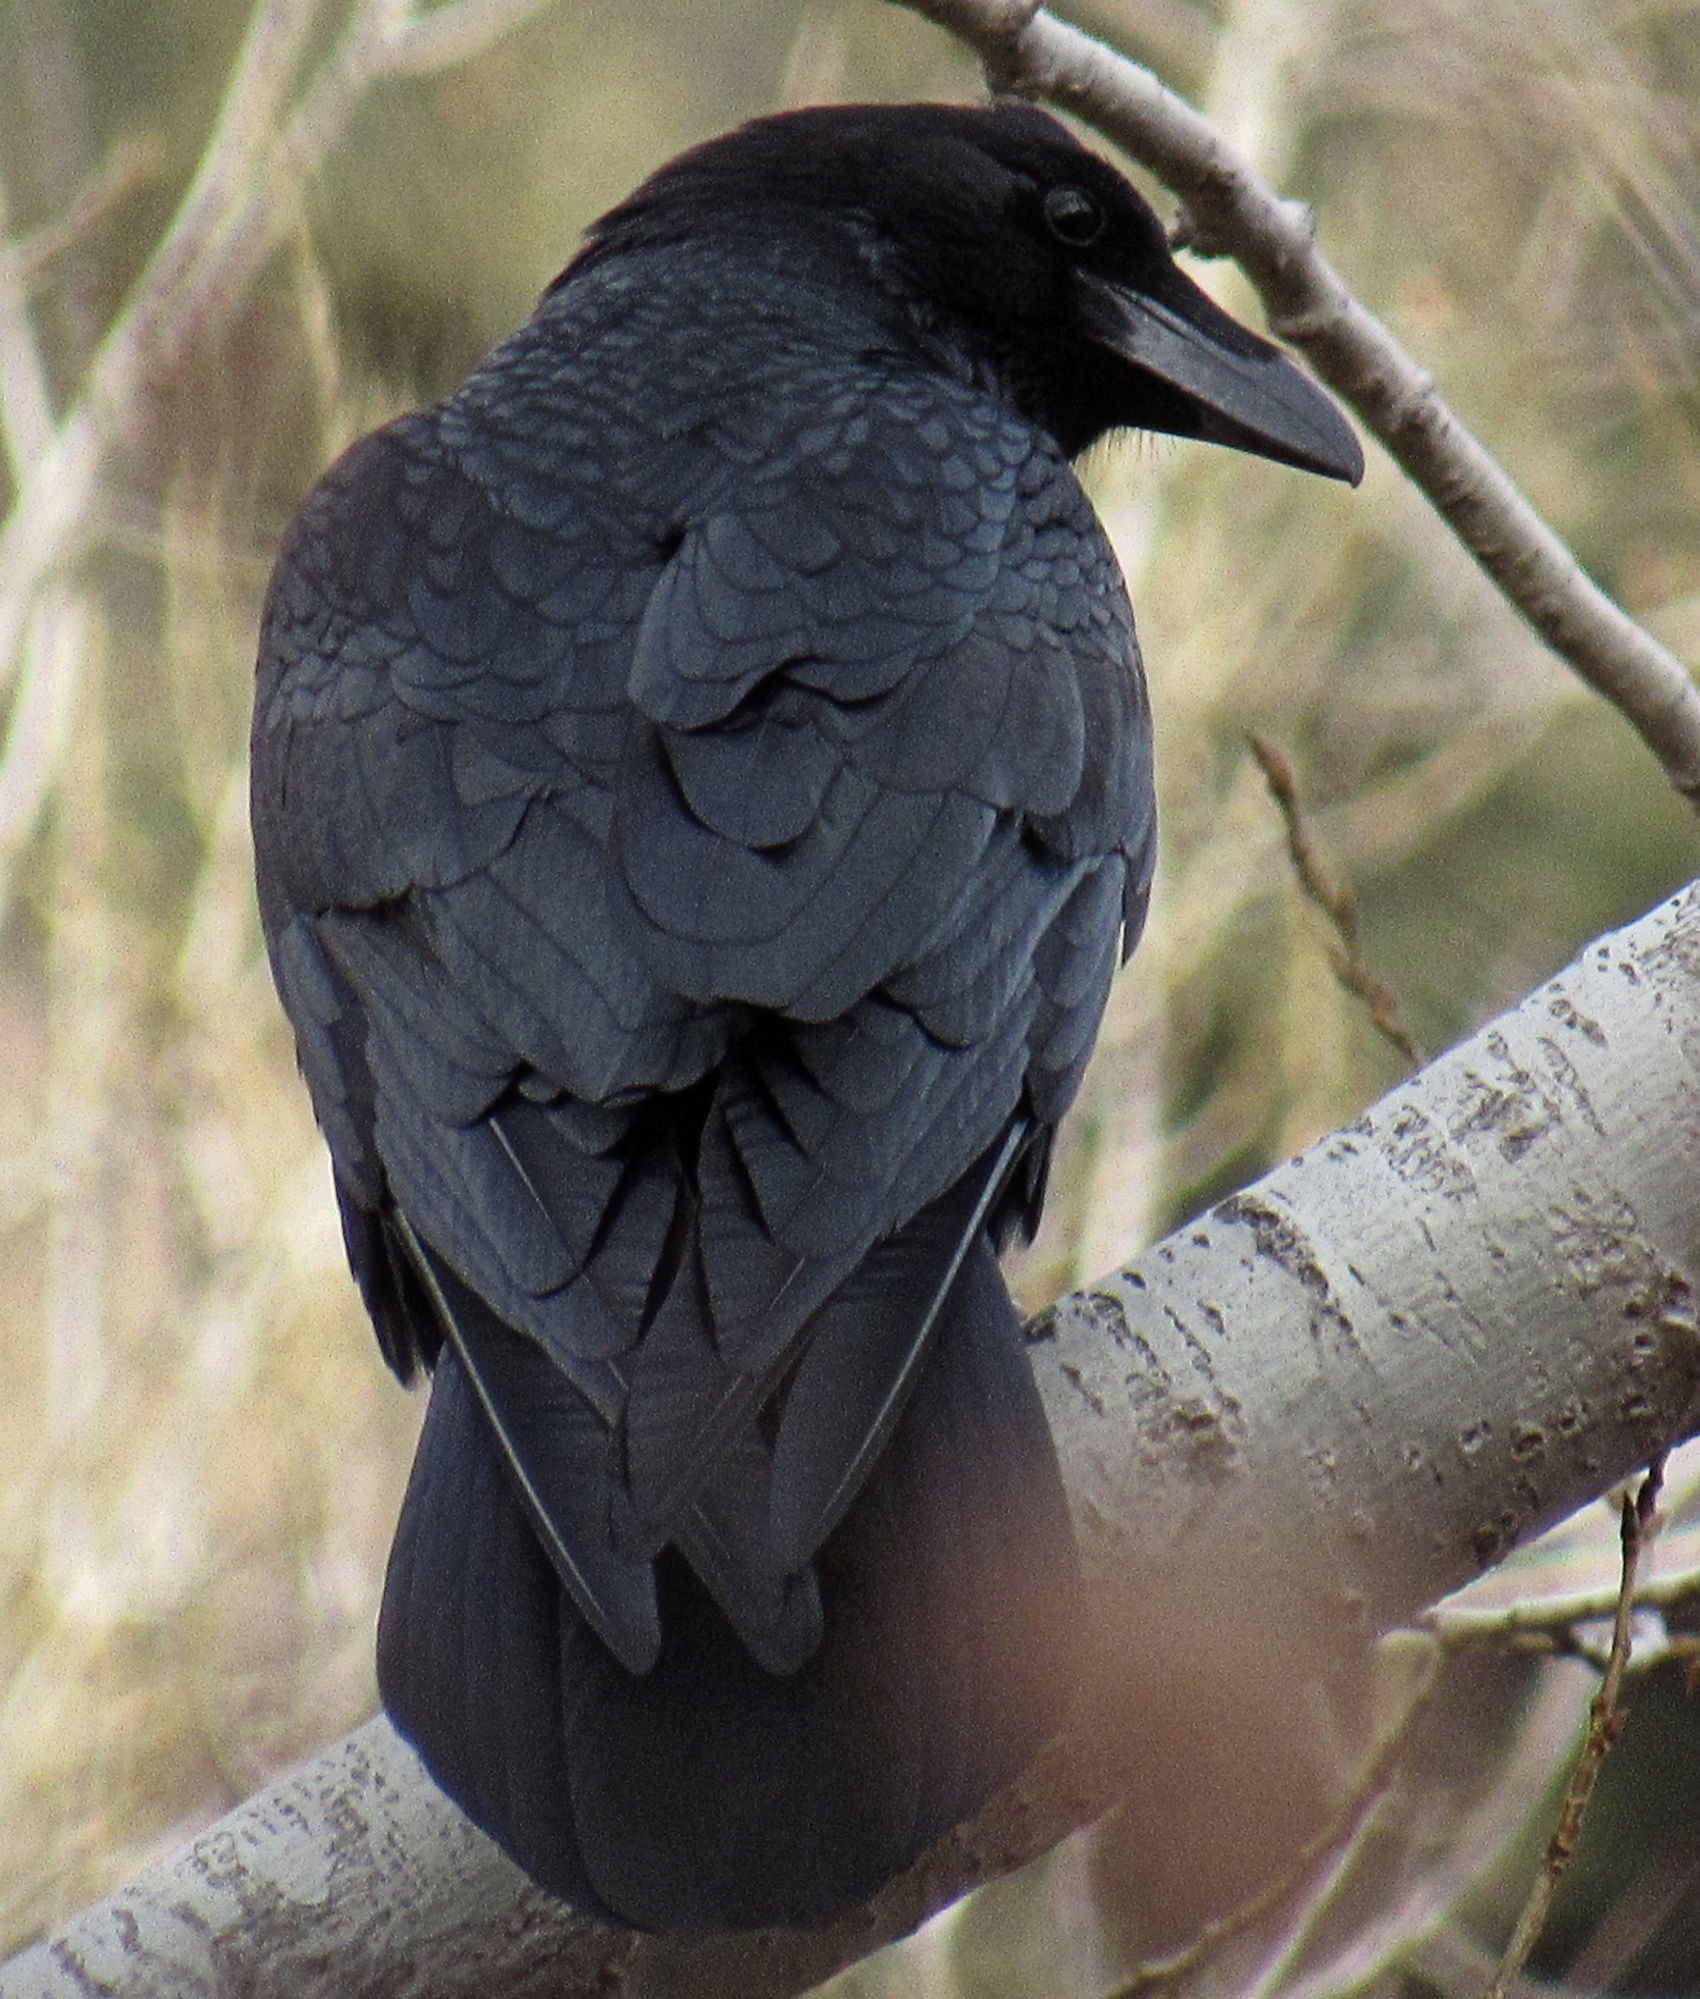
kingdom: Animalia
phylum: Chordata
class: Aves
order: Passeriformes
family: Corvidae
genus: Corvus
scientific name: Corvus corax
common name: Common raven
